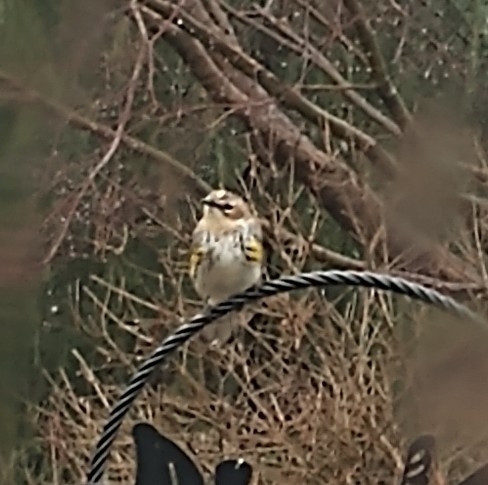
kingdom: Animalia
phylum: Chordata
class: Aves
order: Passeriformes
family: Parulidae
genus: Setophaga
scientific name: Setophaga coronata
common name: Myrtle warbler
